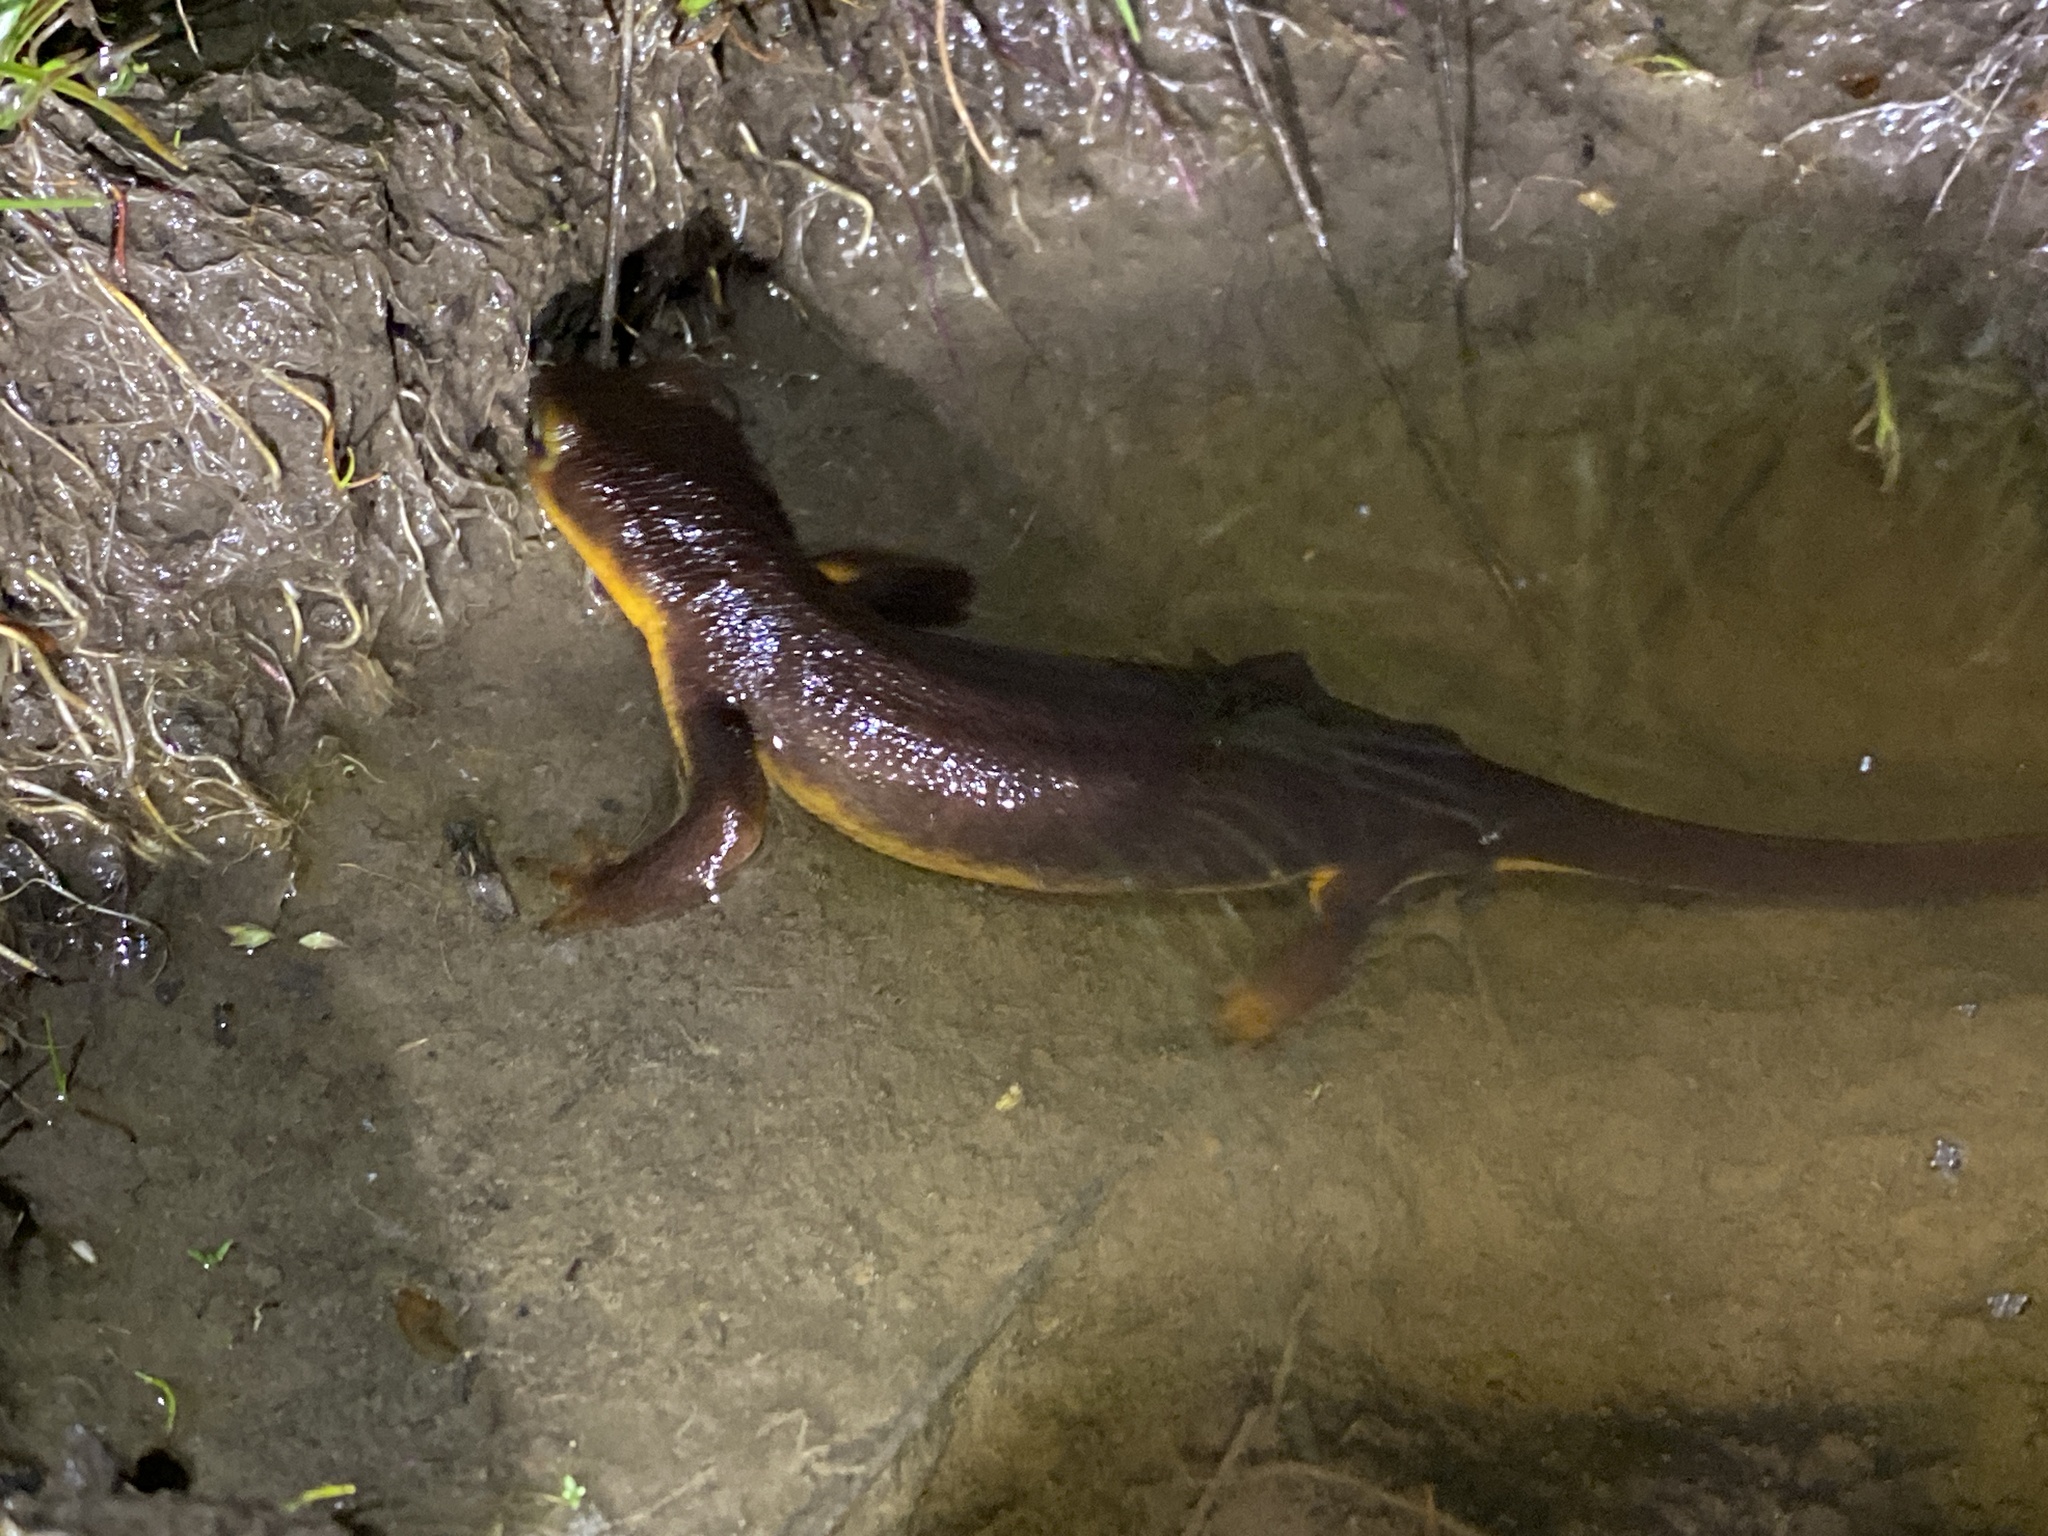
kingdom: Animalia
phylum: Chordata
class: Amphibia
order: Caudata
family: Salamandridae
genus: Taricha
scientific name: Taricha torosa
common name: California newt
